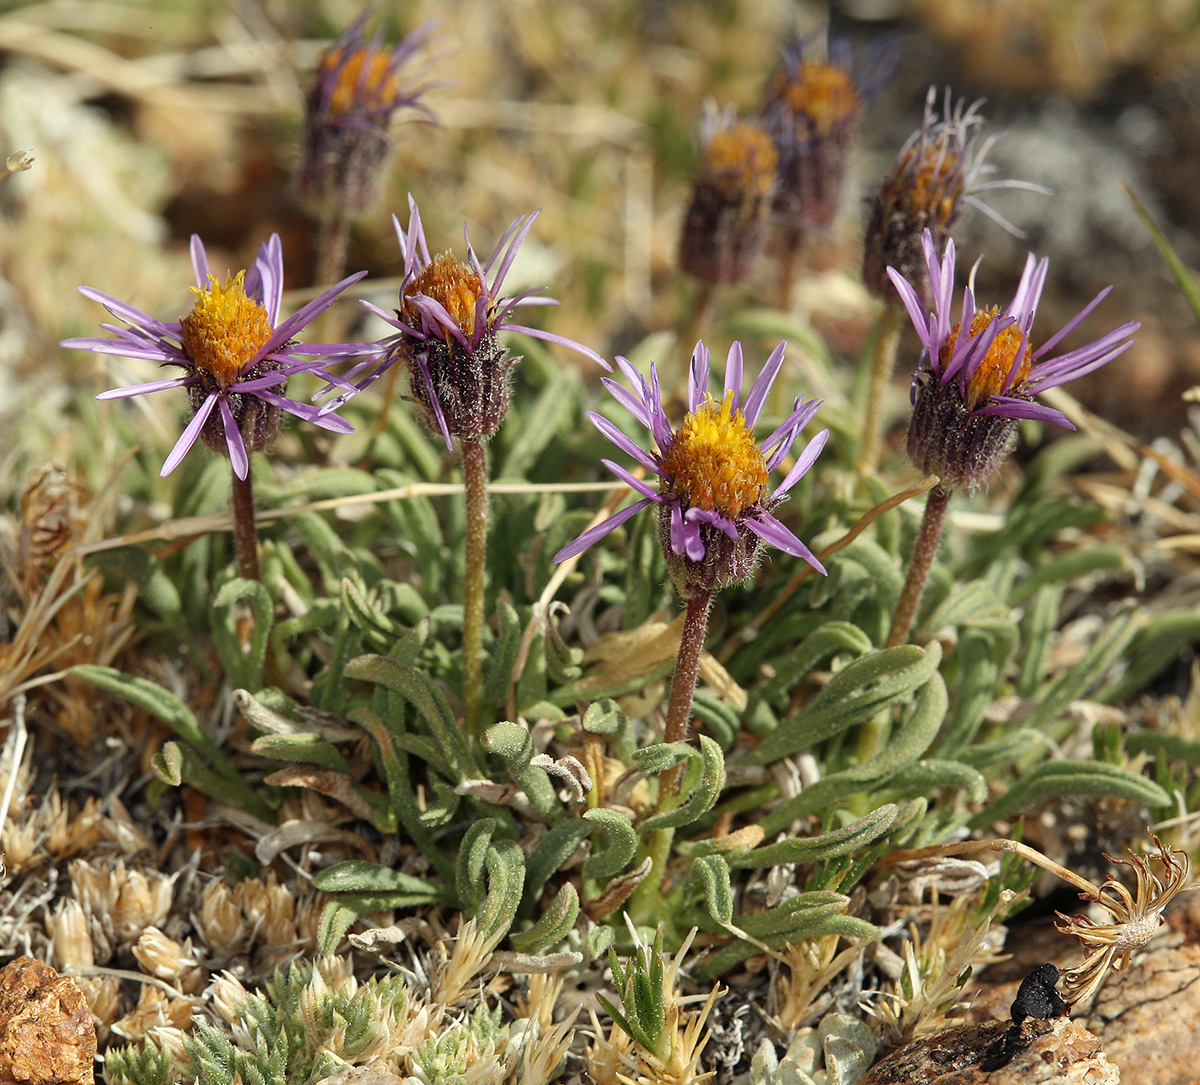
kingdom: Plantae
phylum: Tracheophyta
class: Magnoliopsida
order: Asterales
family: Asteraceae
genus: Erigeron
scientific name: Erigeron pygmaeus
